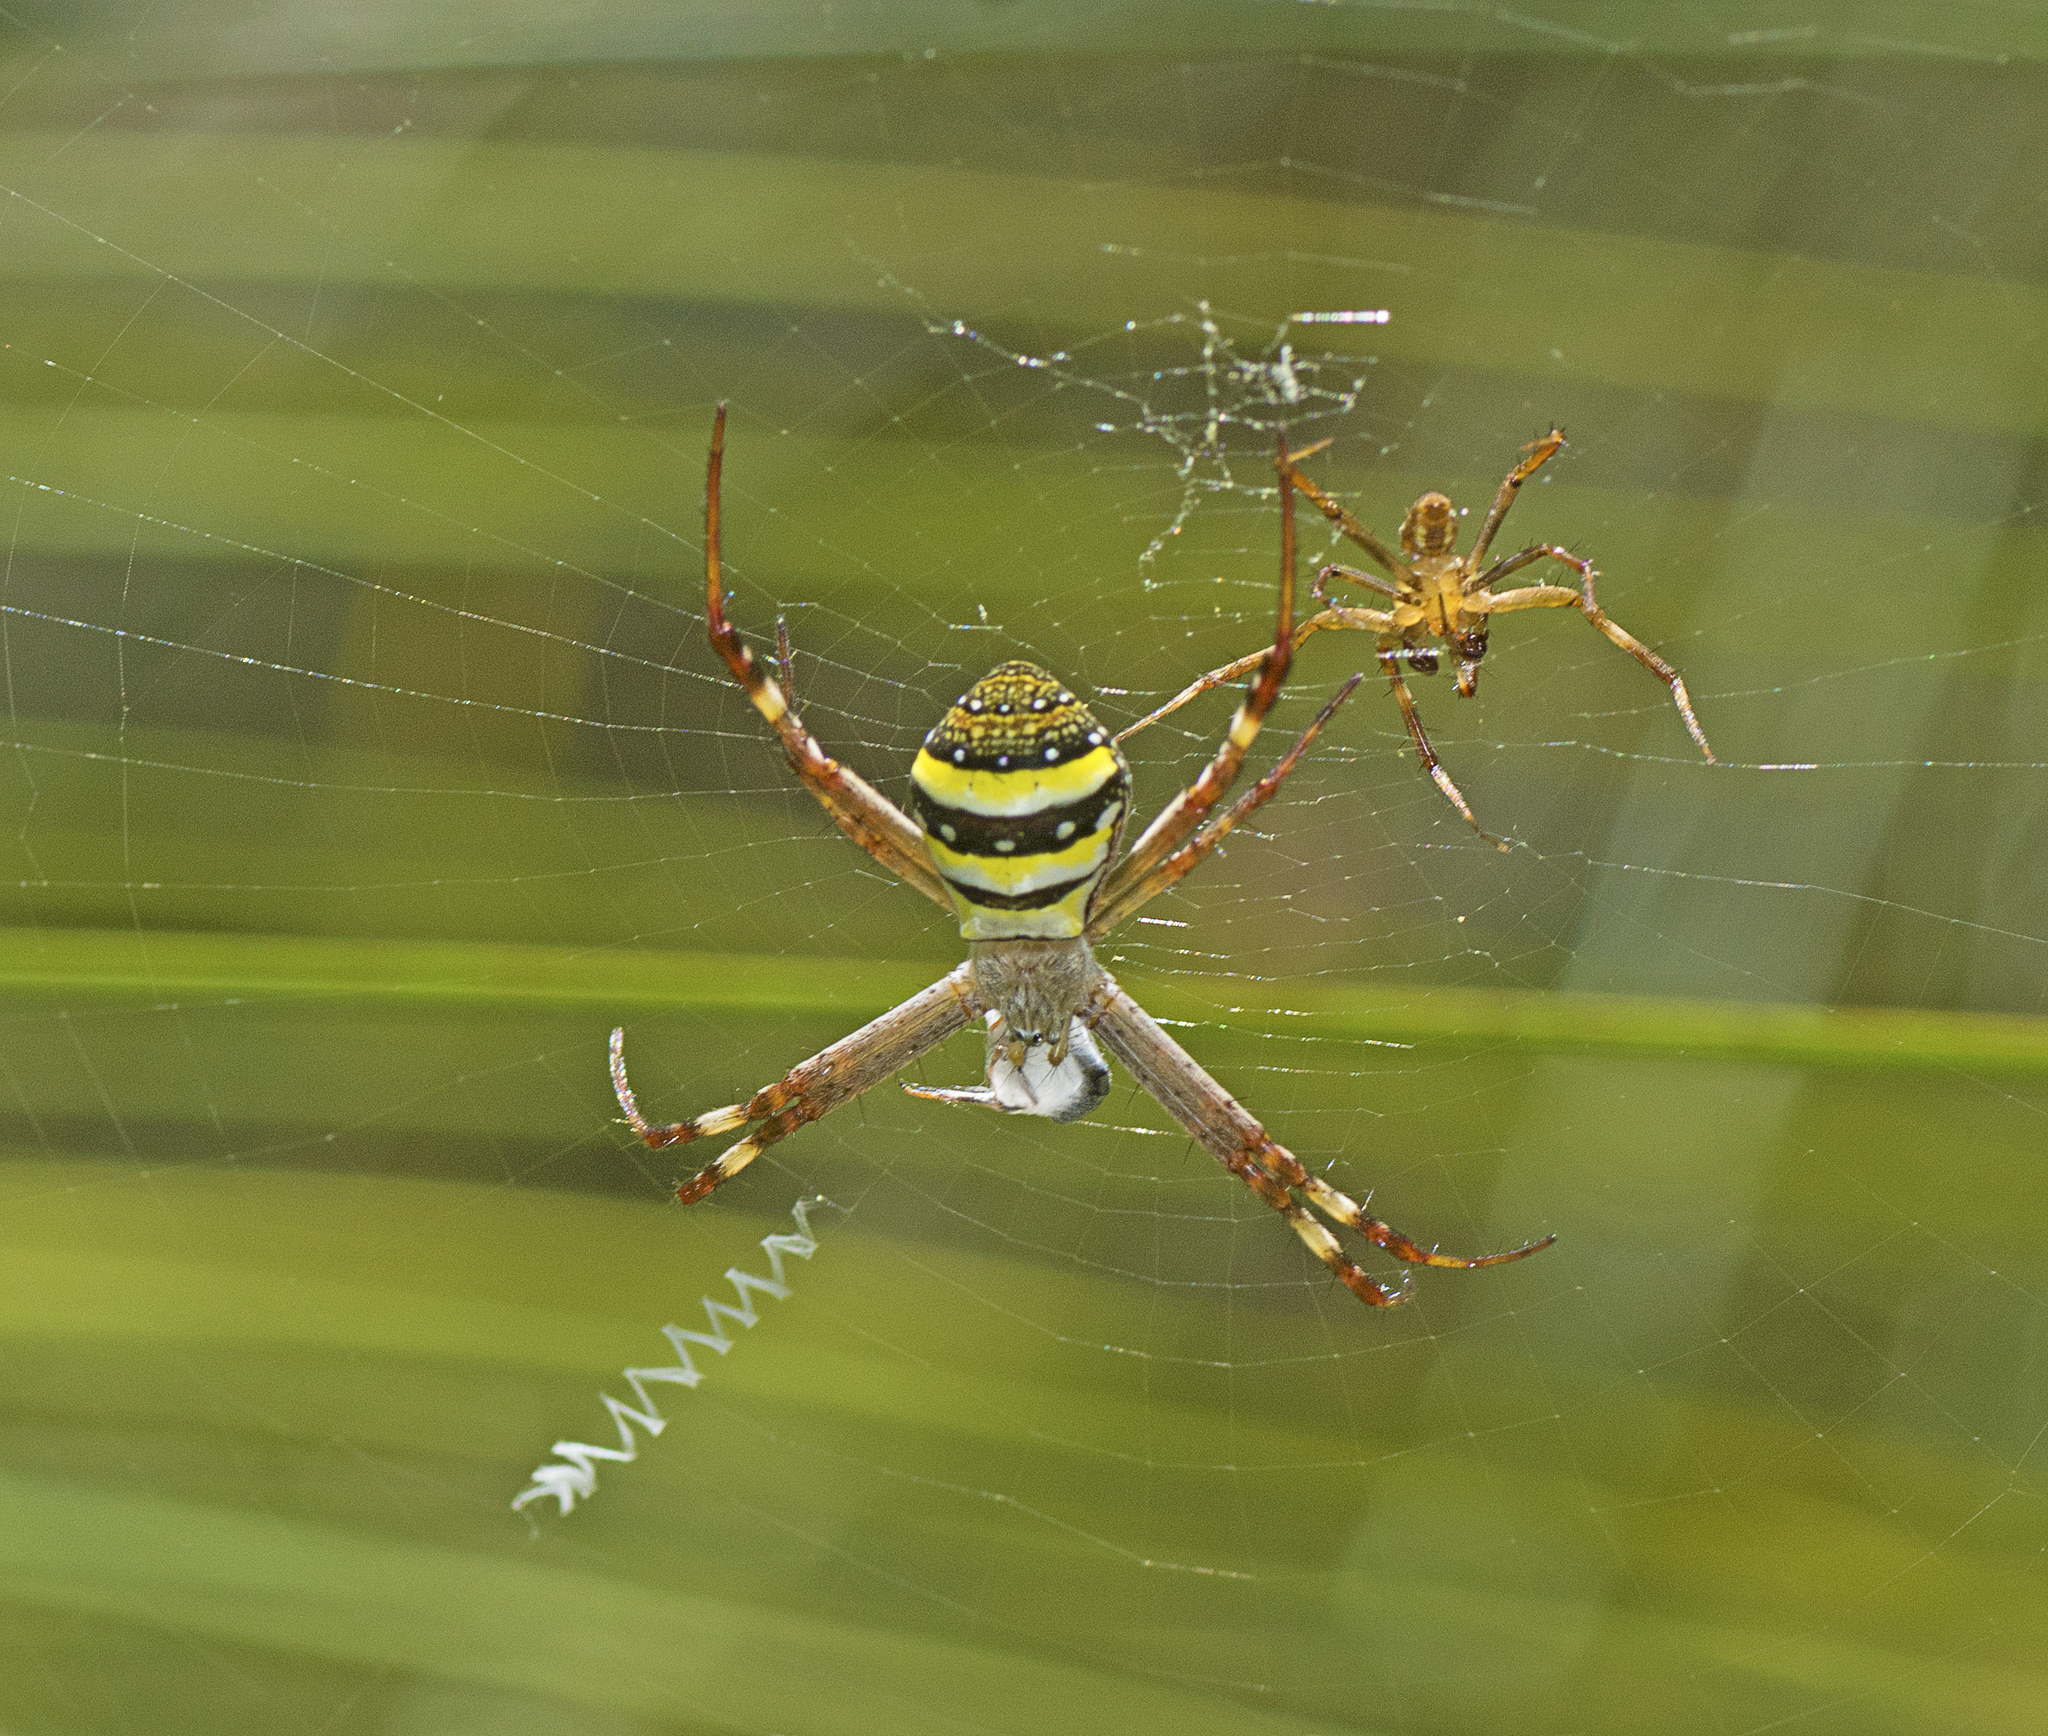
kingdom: Animalia
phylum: Arthropoda
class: Arachnida
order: Araneae
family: Araneidae
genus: Argiope
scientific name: Argiope keyserlingi
